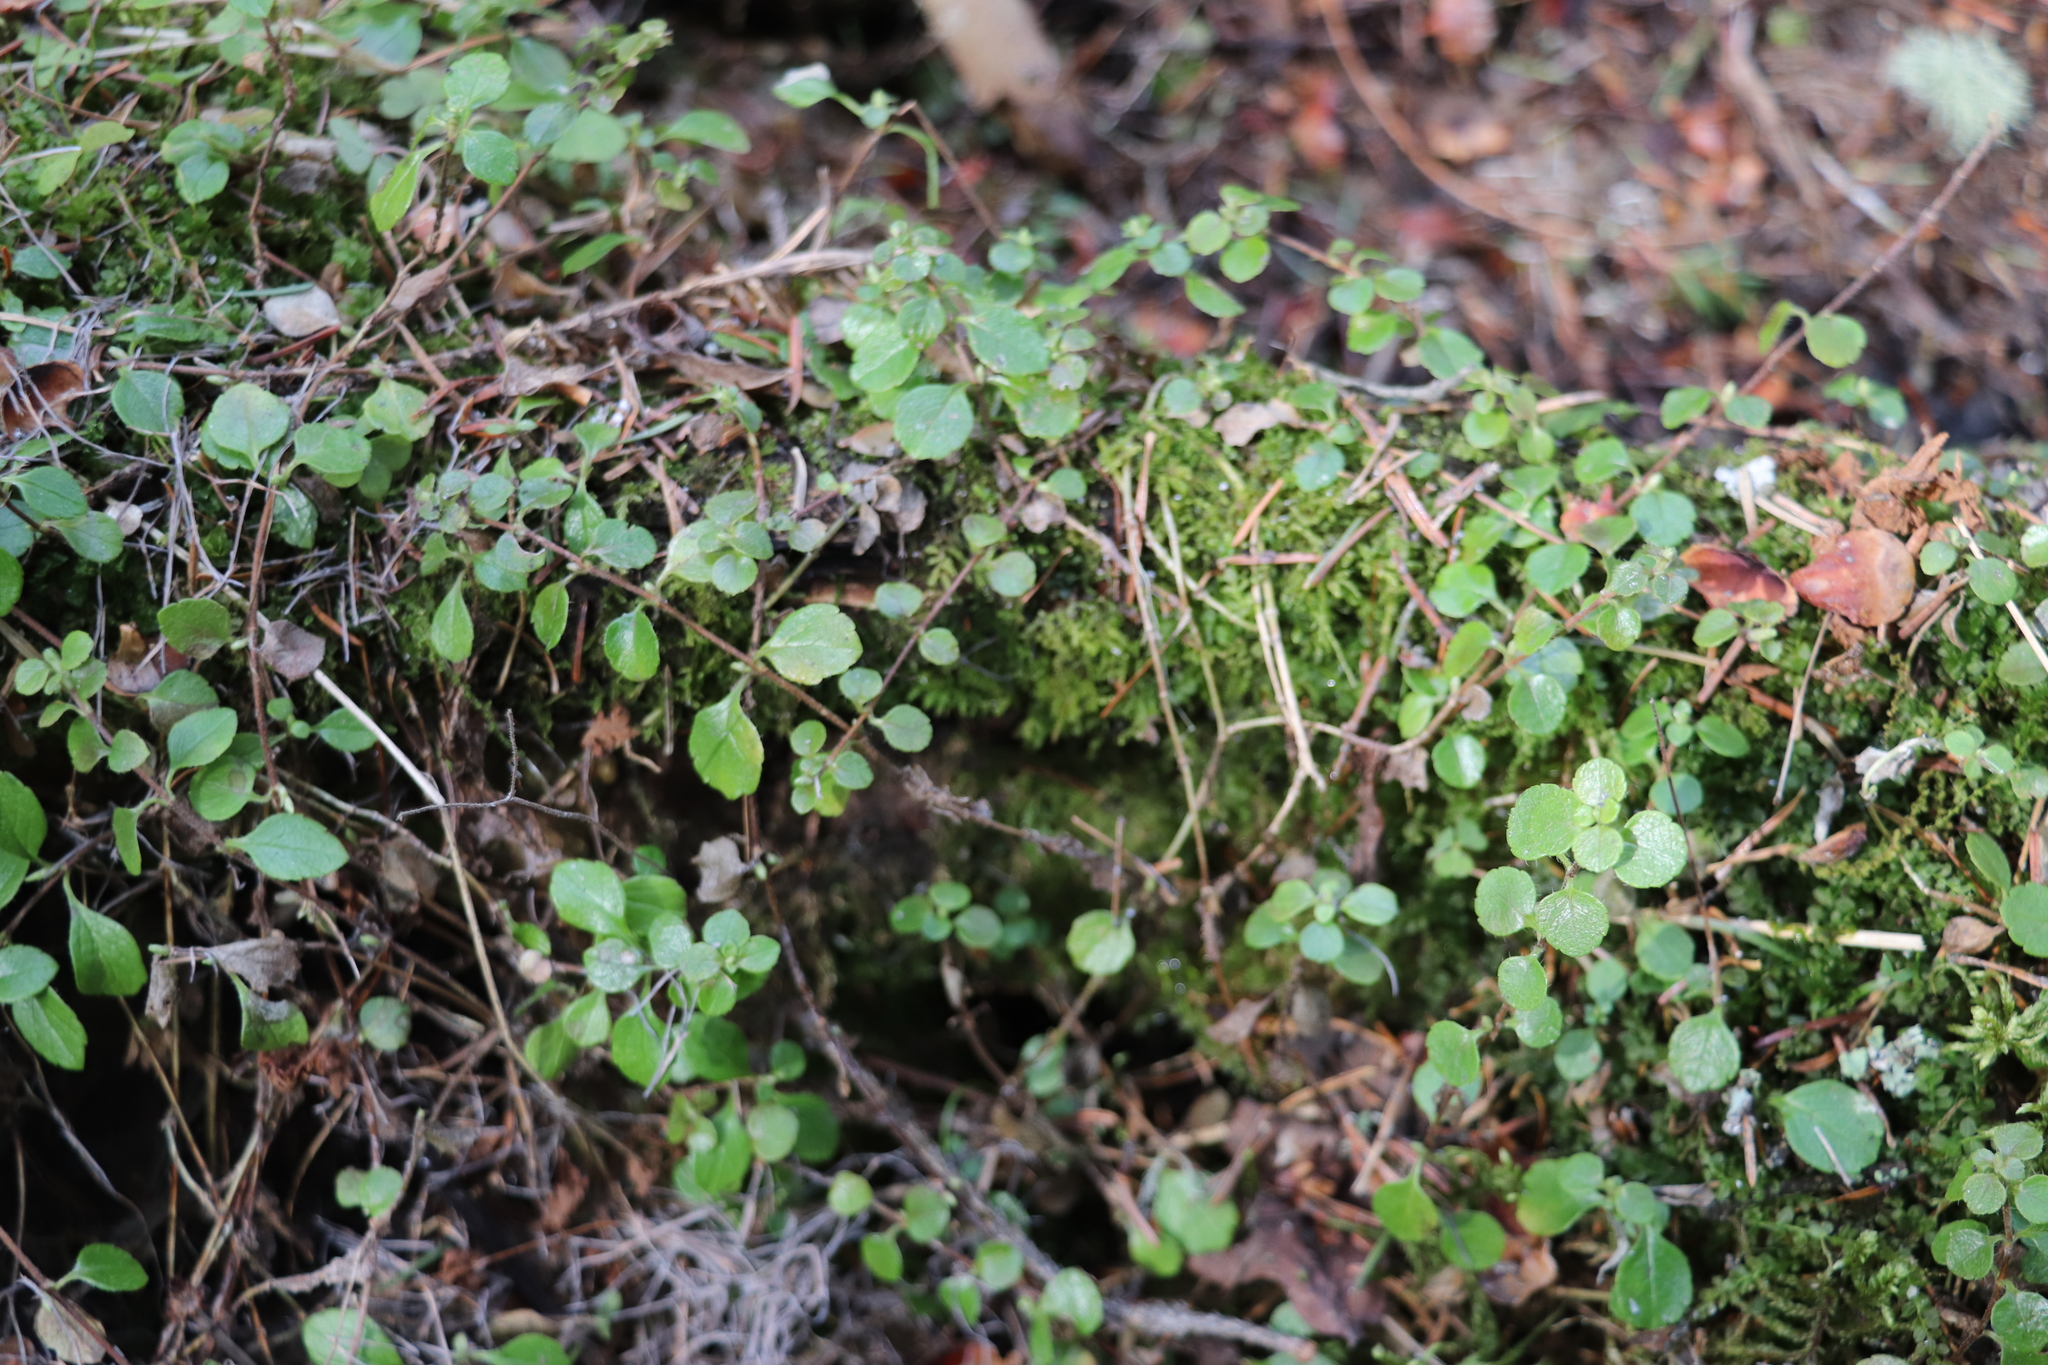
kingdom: Plantae
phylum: Tracheophyta
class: Magnoliopsida
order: Dipsacales
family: Caprifoliaceae
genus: Linnaea
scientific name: Linnaea borealis
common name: Twinflower
